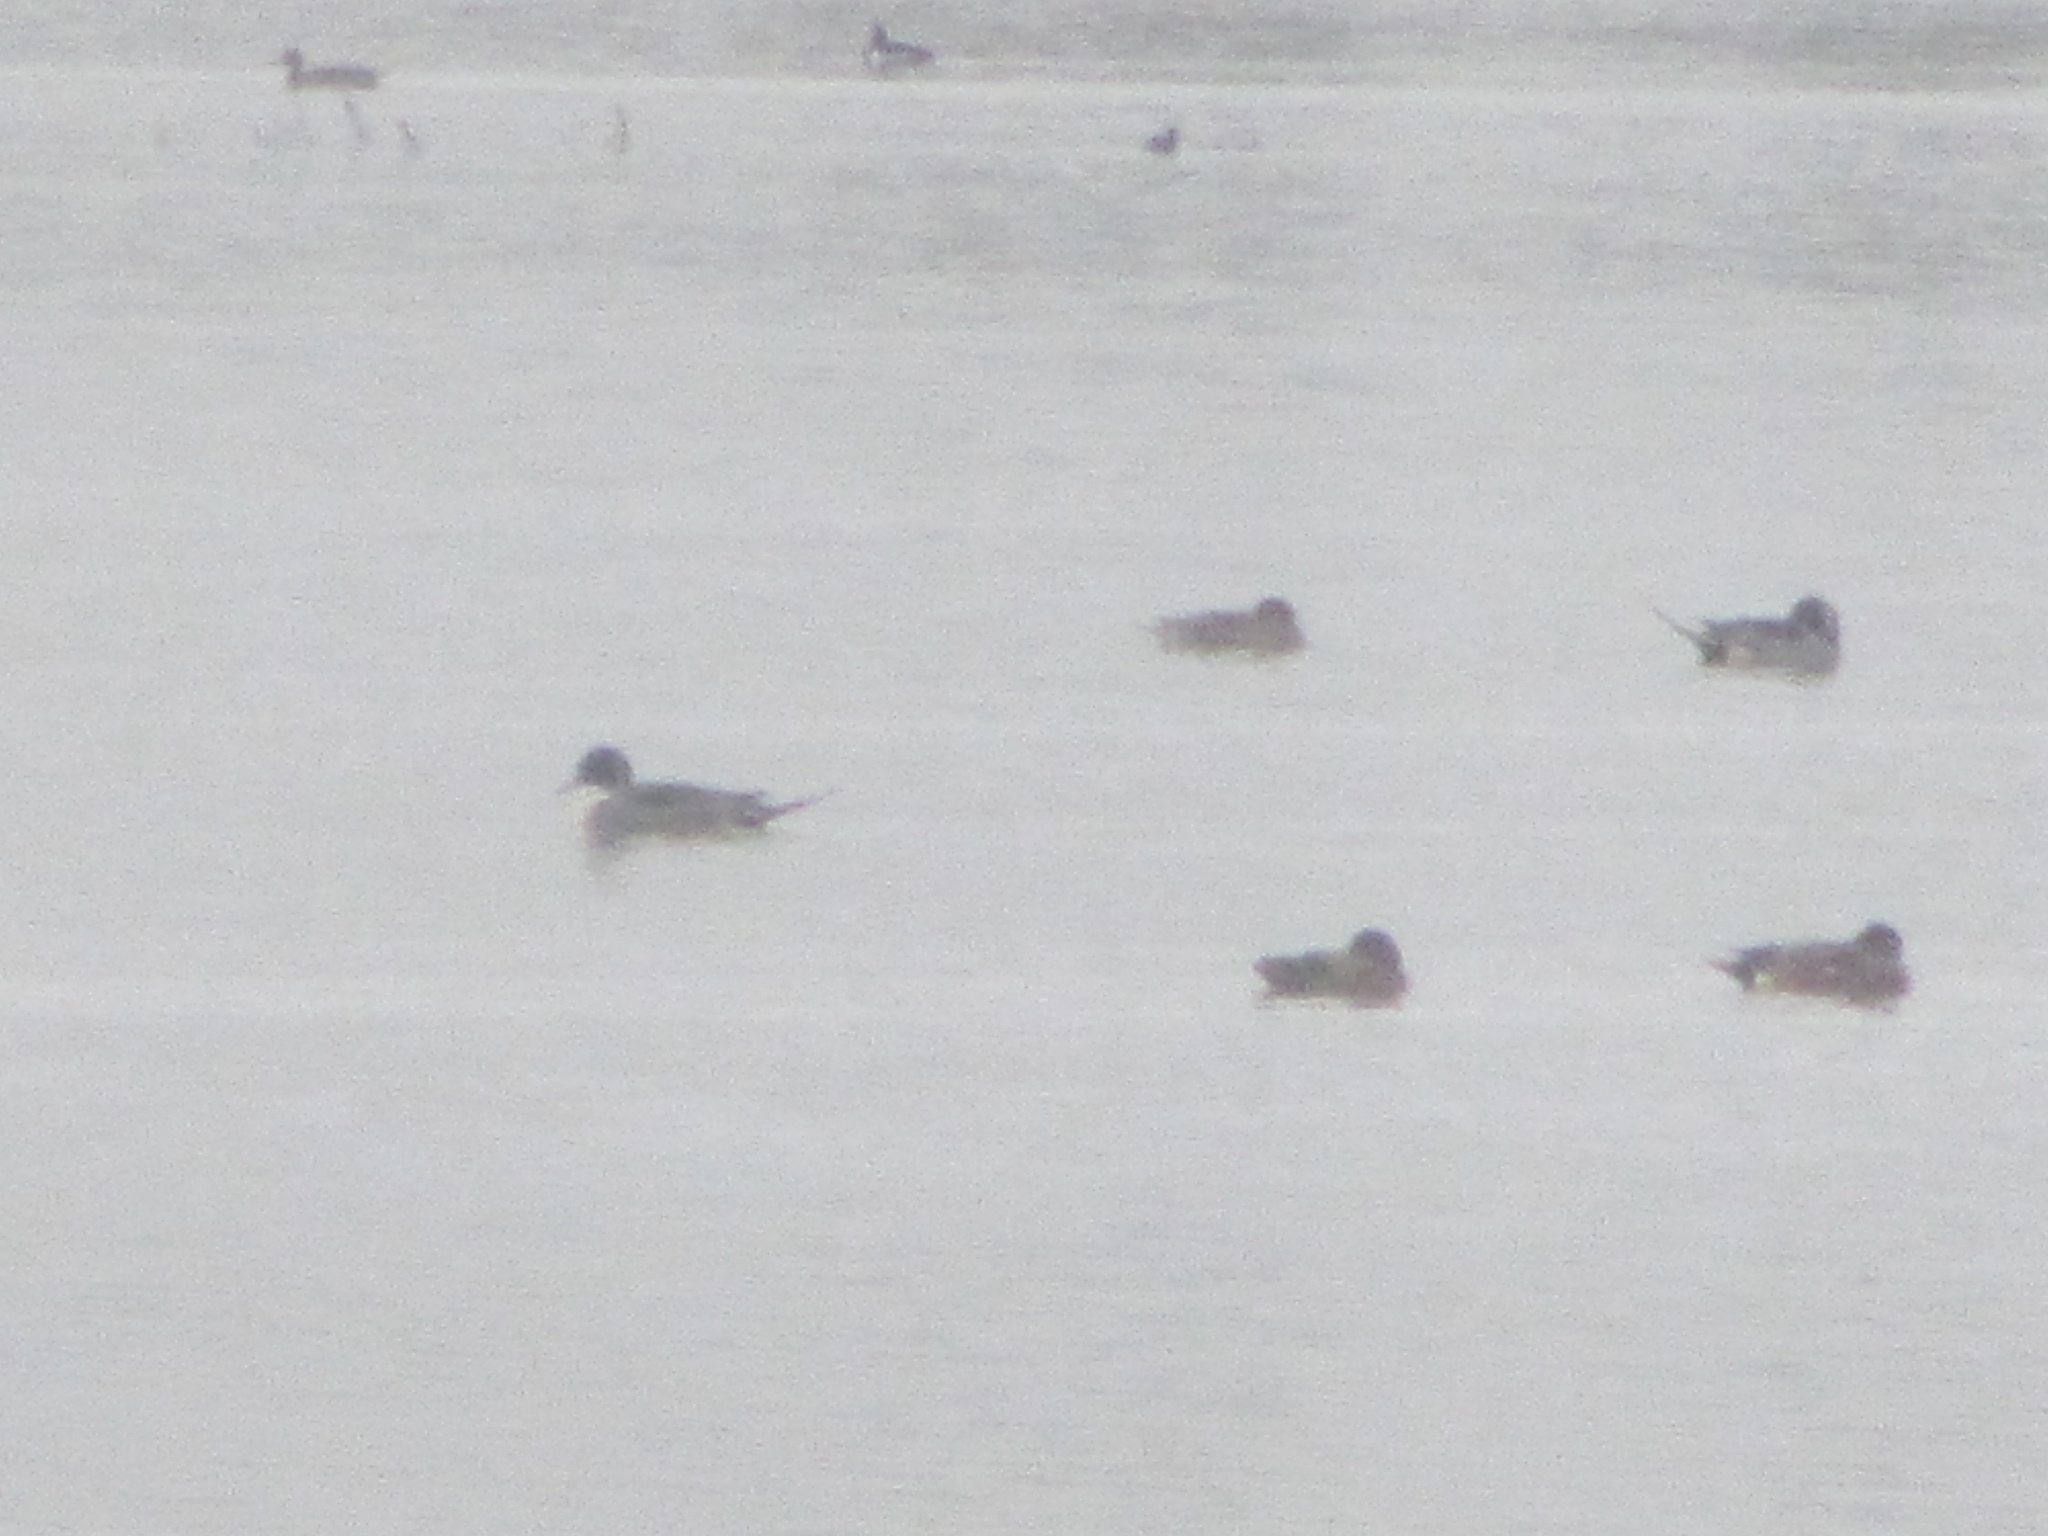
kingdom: Animalia
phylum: Chordata
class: Aves
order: Anseriformes
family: Anatidae
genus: Anas
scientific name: Anas acuta
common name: Northern pintail
